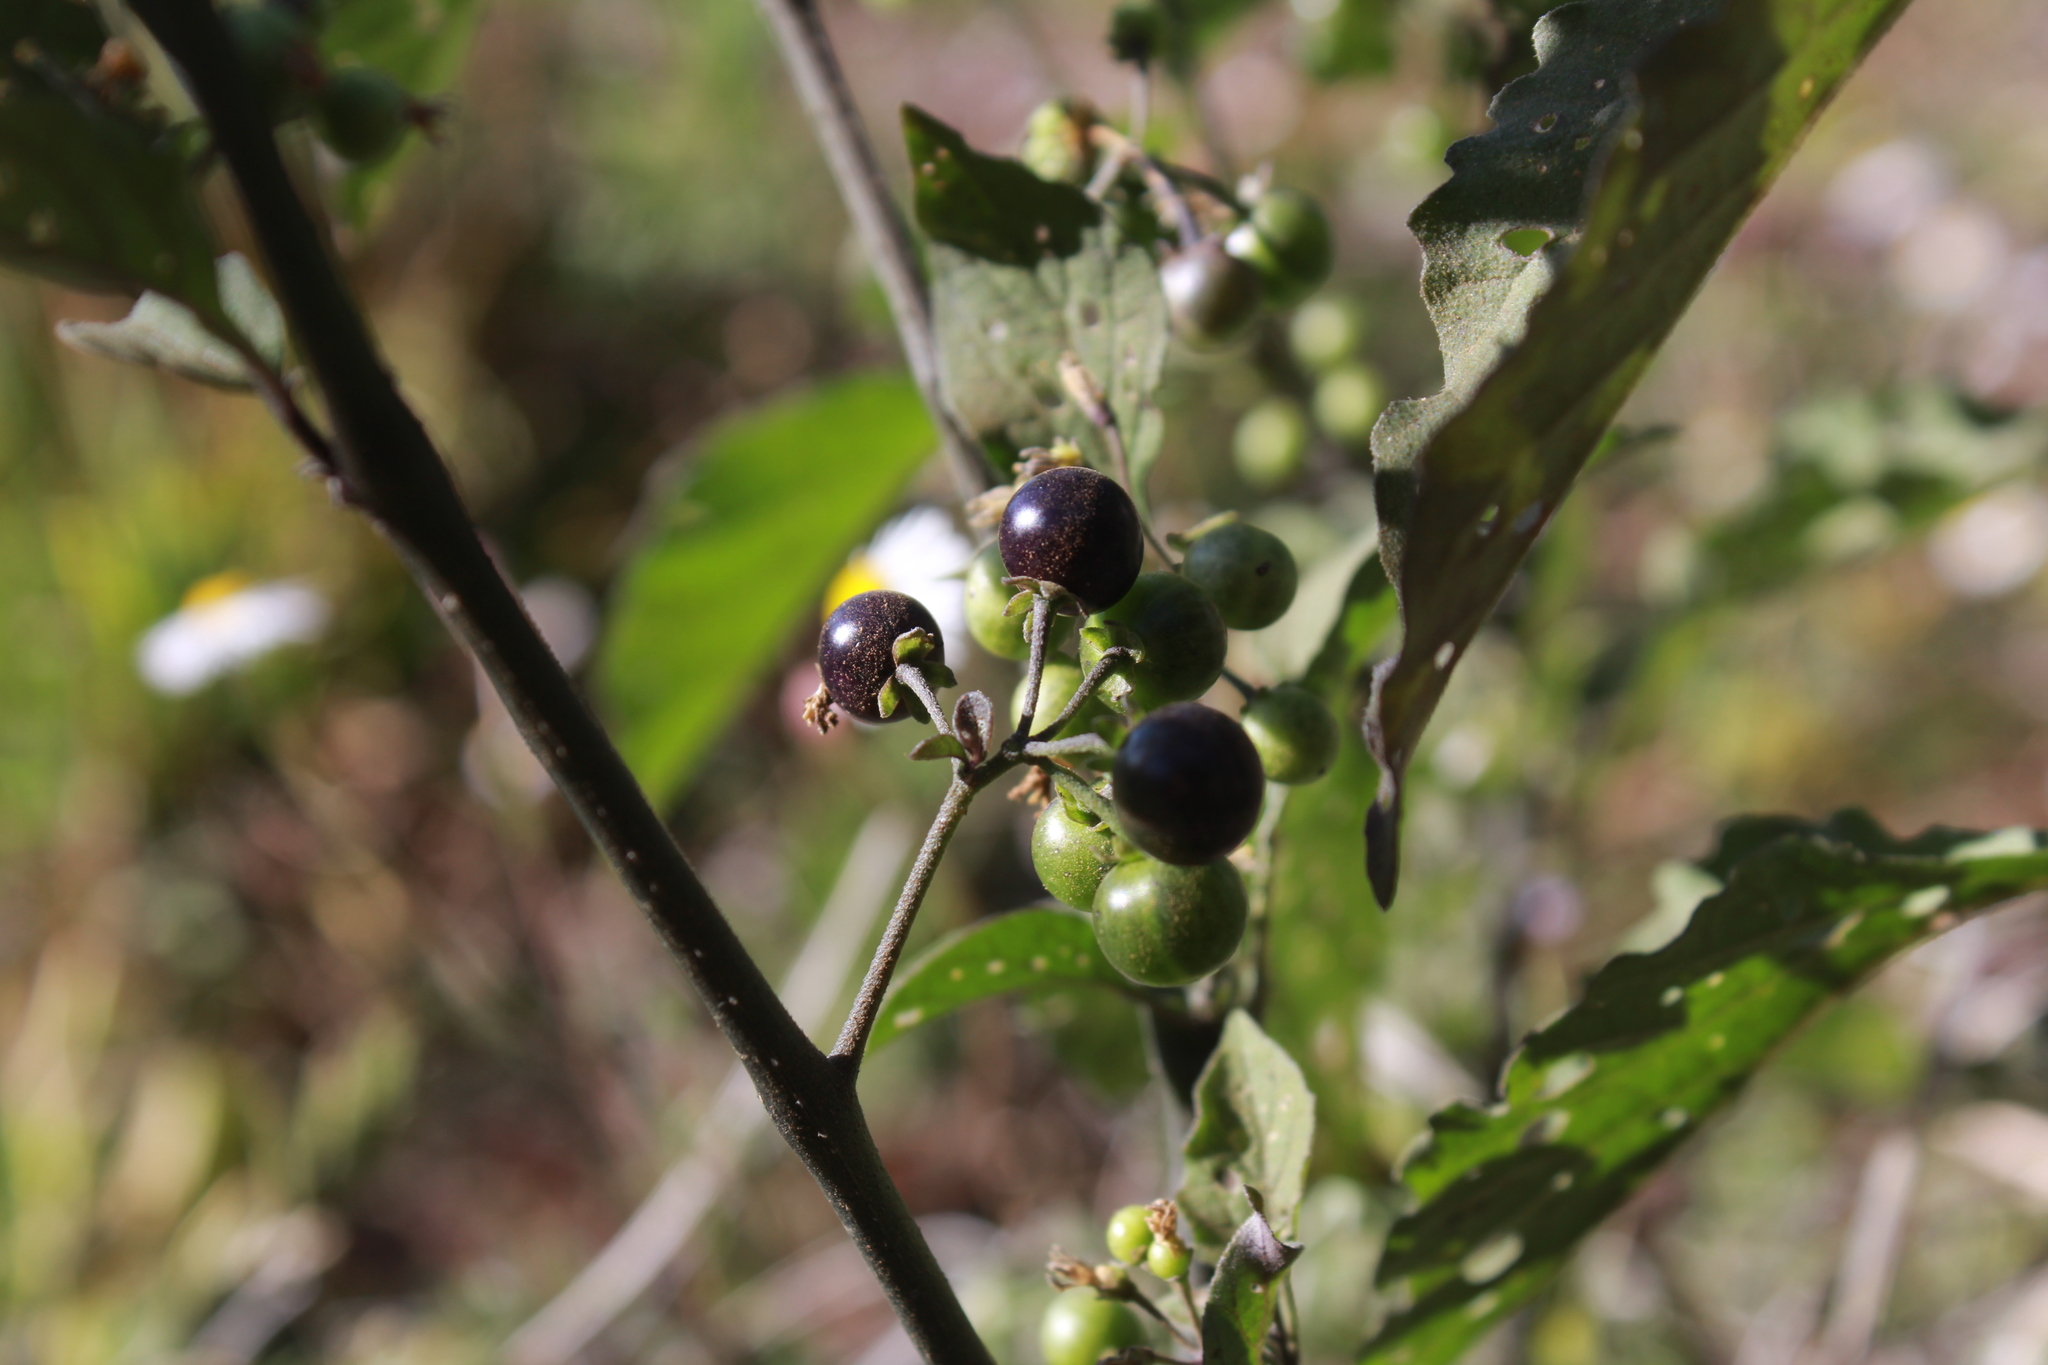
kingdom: Plantae
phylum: Tracheophyta
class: Magnoliopsida
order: Solanales
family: Solanaceae
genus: Solanum
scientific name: Solanum americanum
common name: American black nightshade
